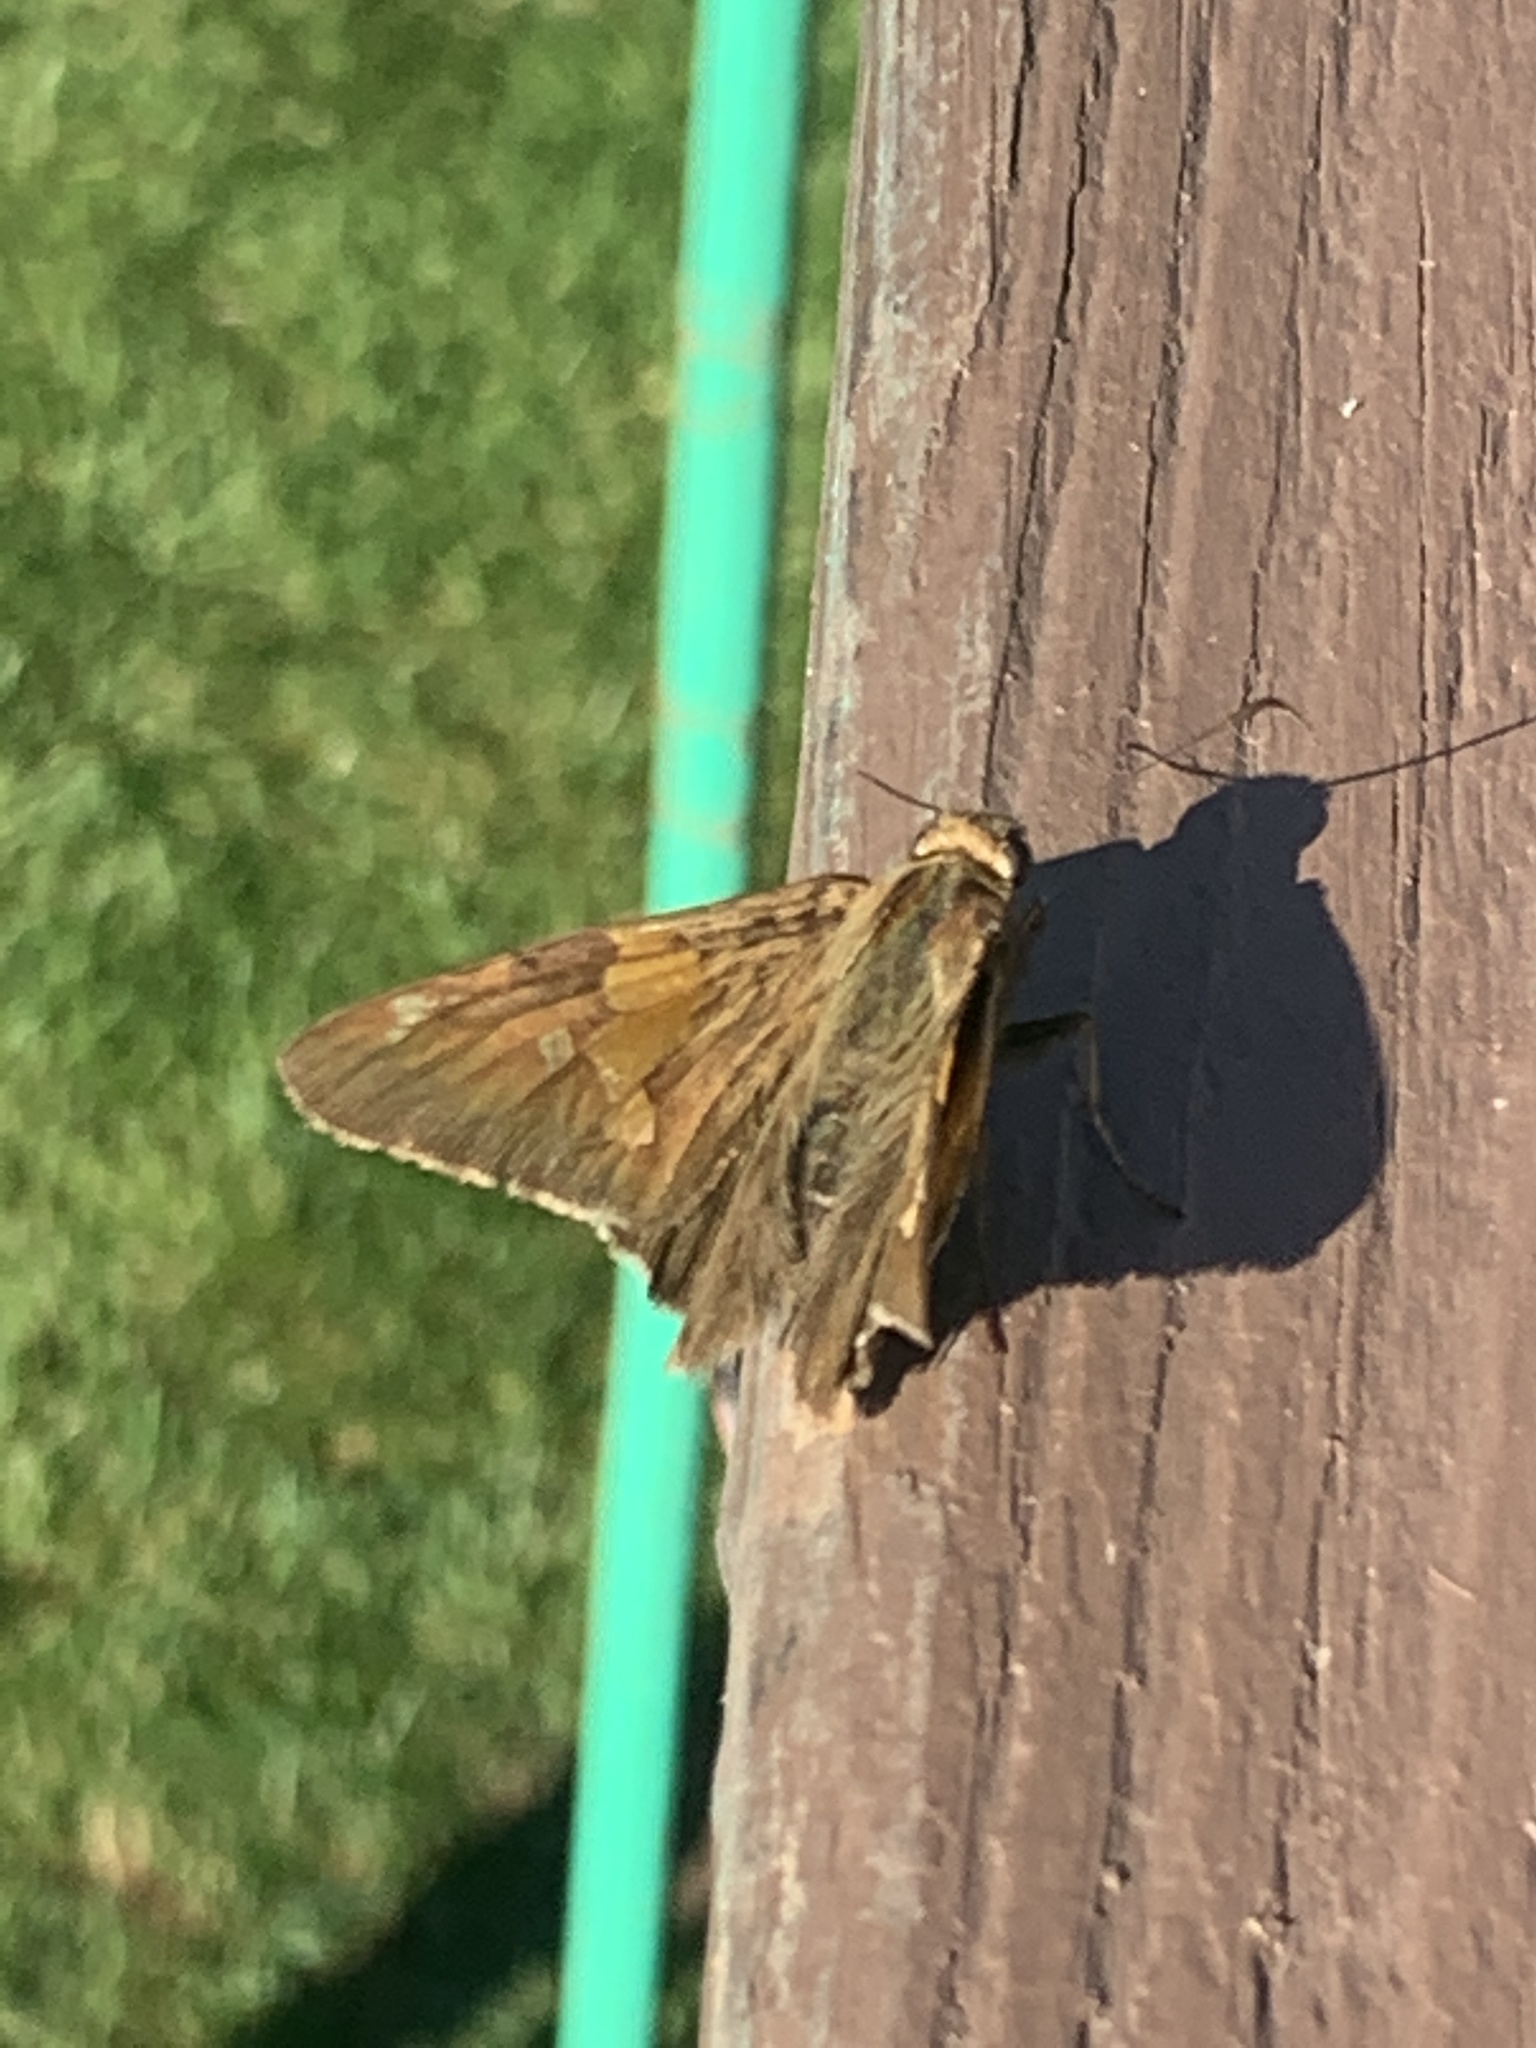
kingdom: Animalia
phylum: Arthropoda
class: Insecta
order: Lepidoptera
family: Hesperiidae
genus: Epargyreus
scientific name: Epargyreus clarus
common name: Silver-spotted skipper
